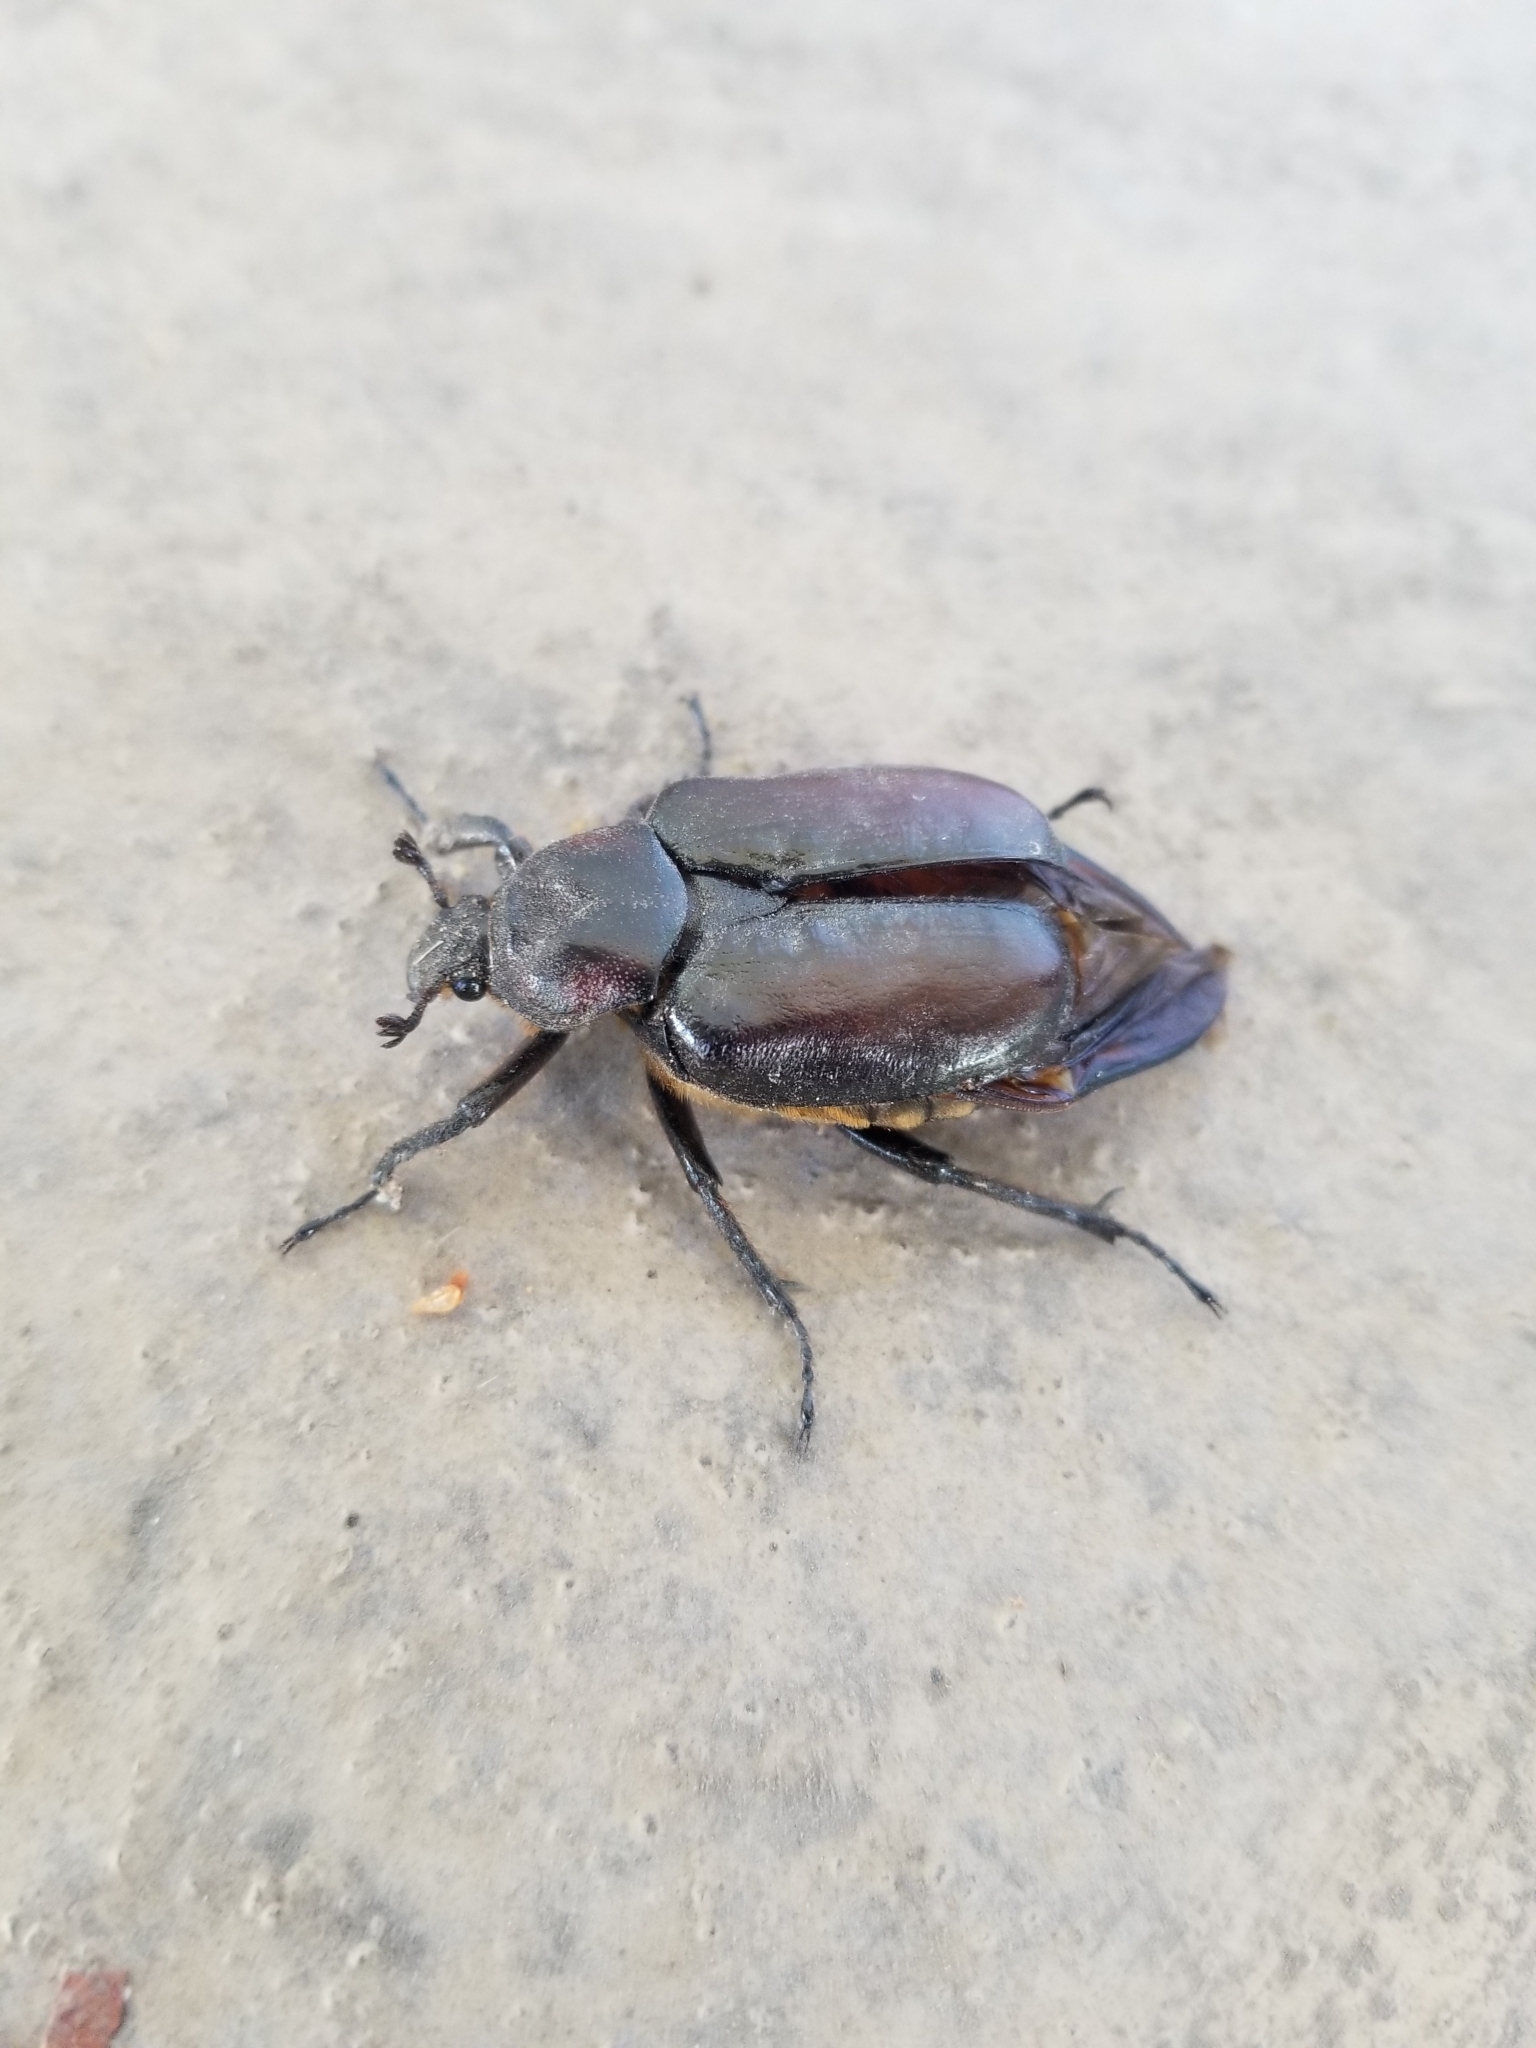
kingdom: Animalia
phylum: Arthropoda
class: Insecta
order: Coleoptera
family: Scarabaeidae
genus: Osmoderma
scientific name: Osmoderma subplanata
